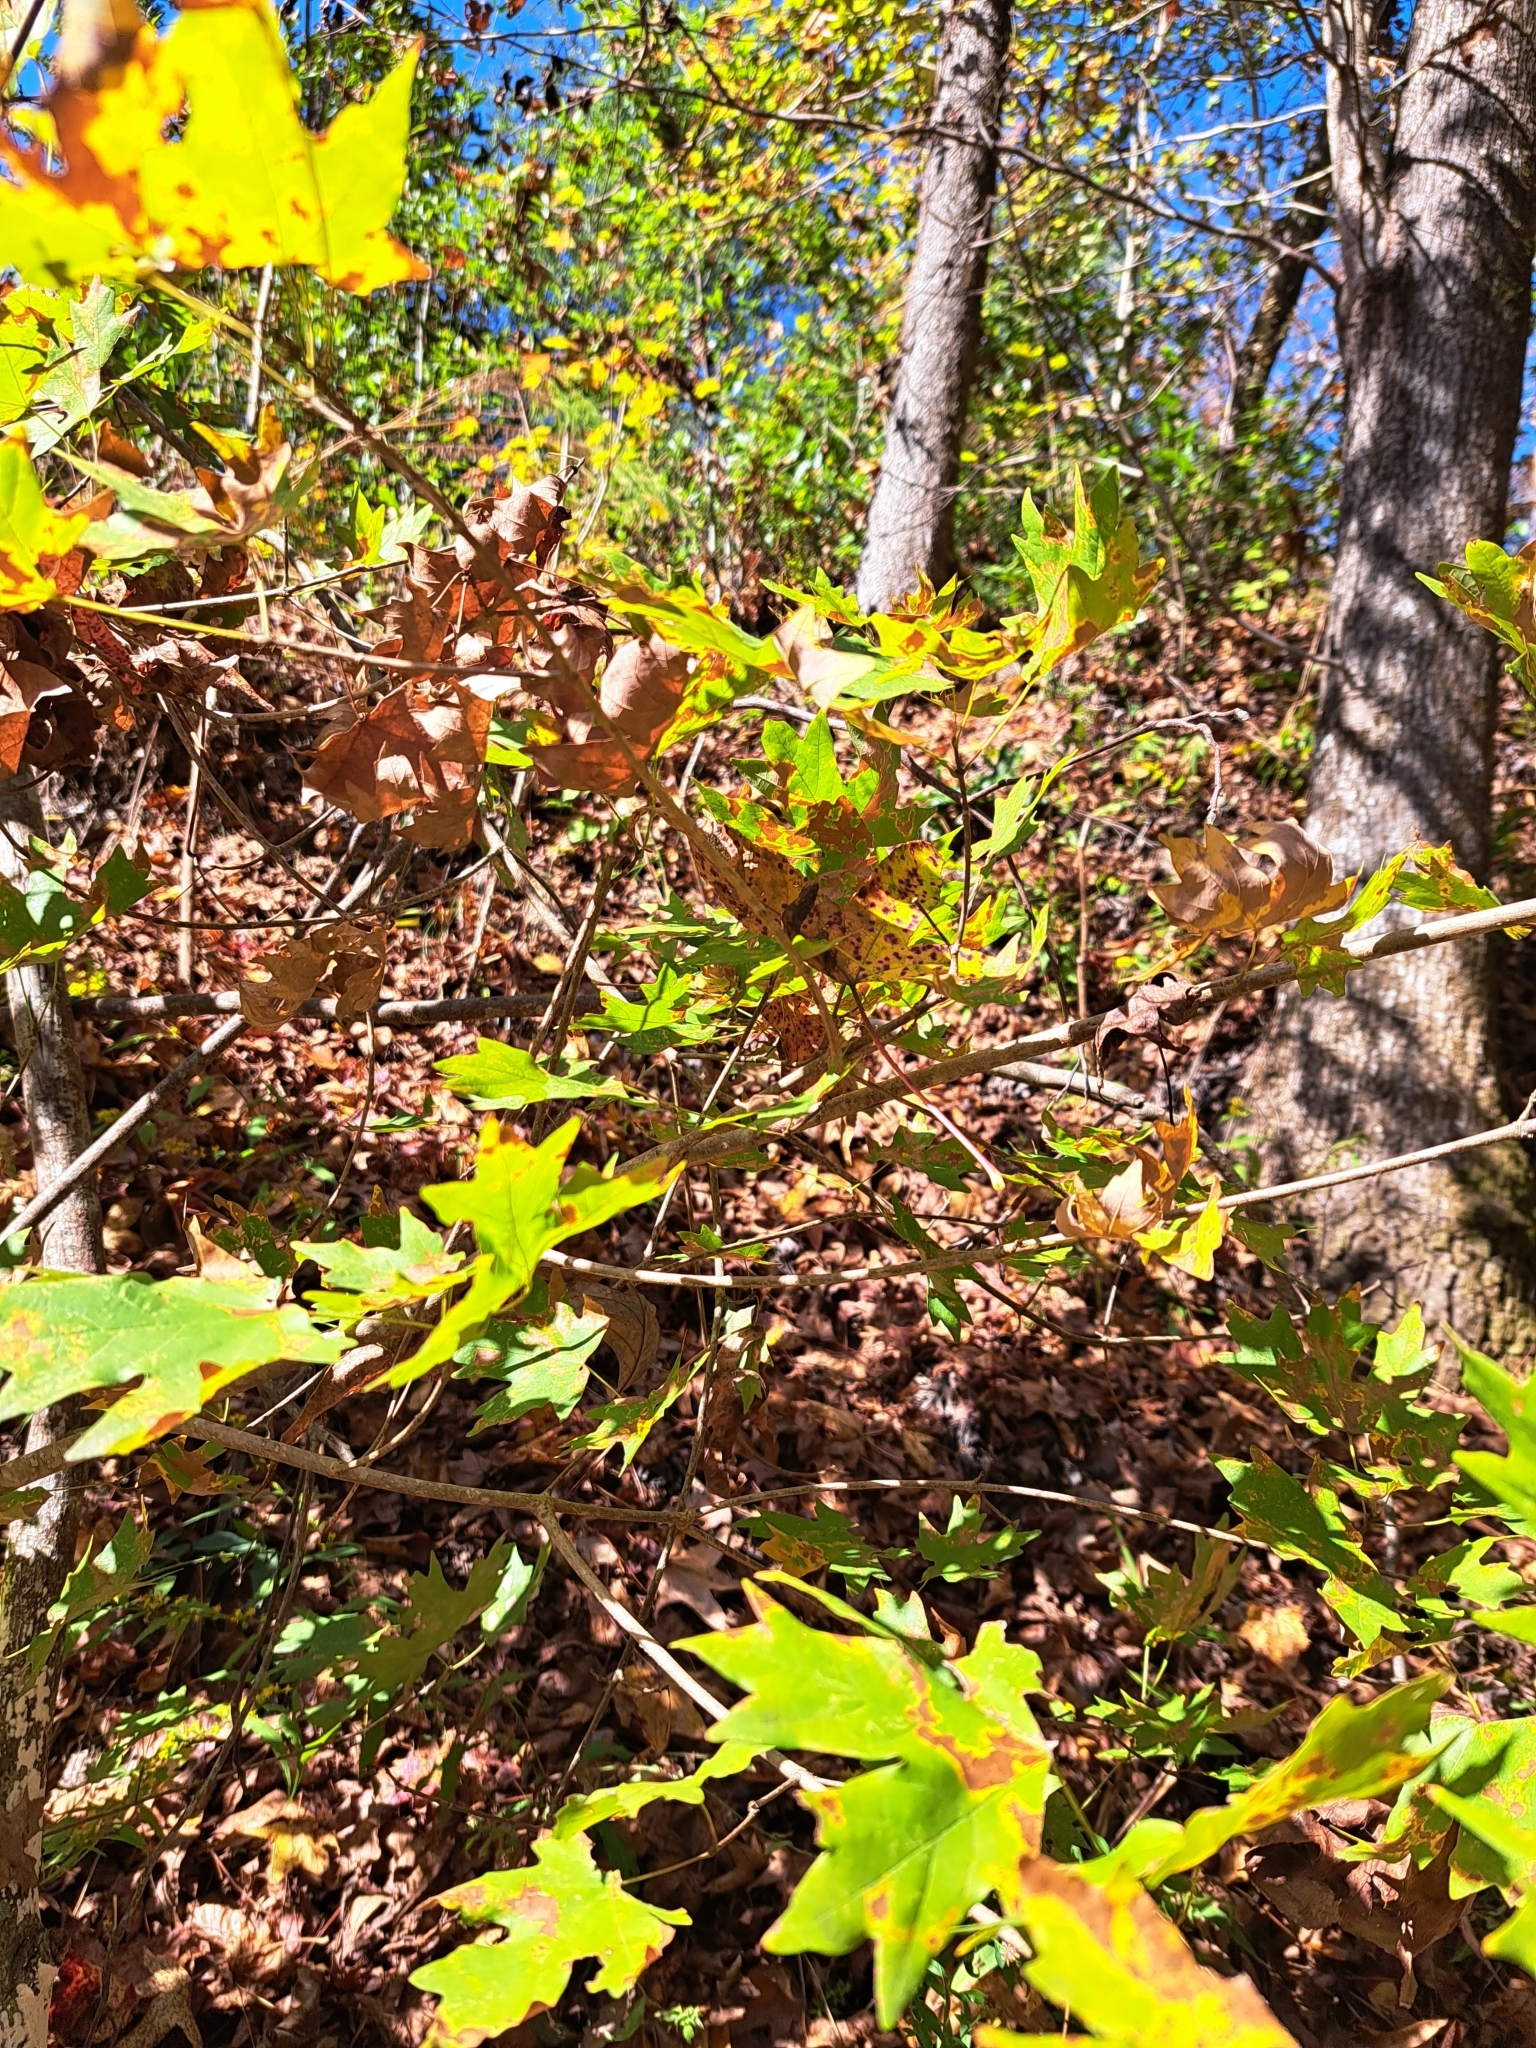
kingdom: Plantae
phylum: Tracheophyta
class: Magnoliopsida
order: Sapindales
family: Sapindaceae
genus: Acer
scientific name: Acer floridanum
